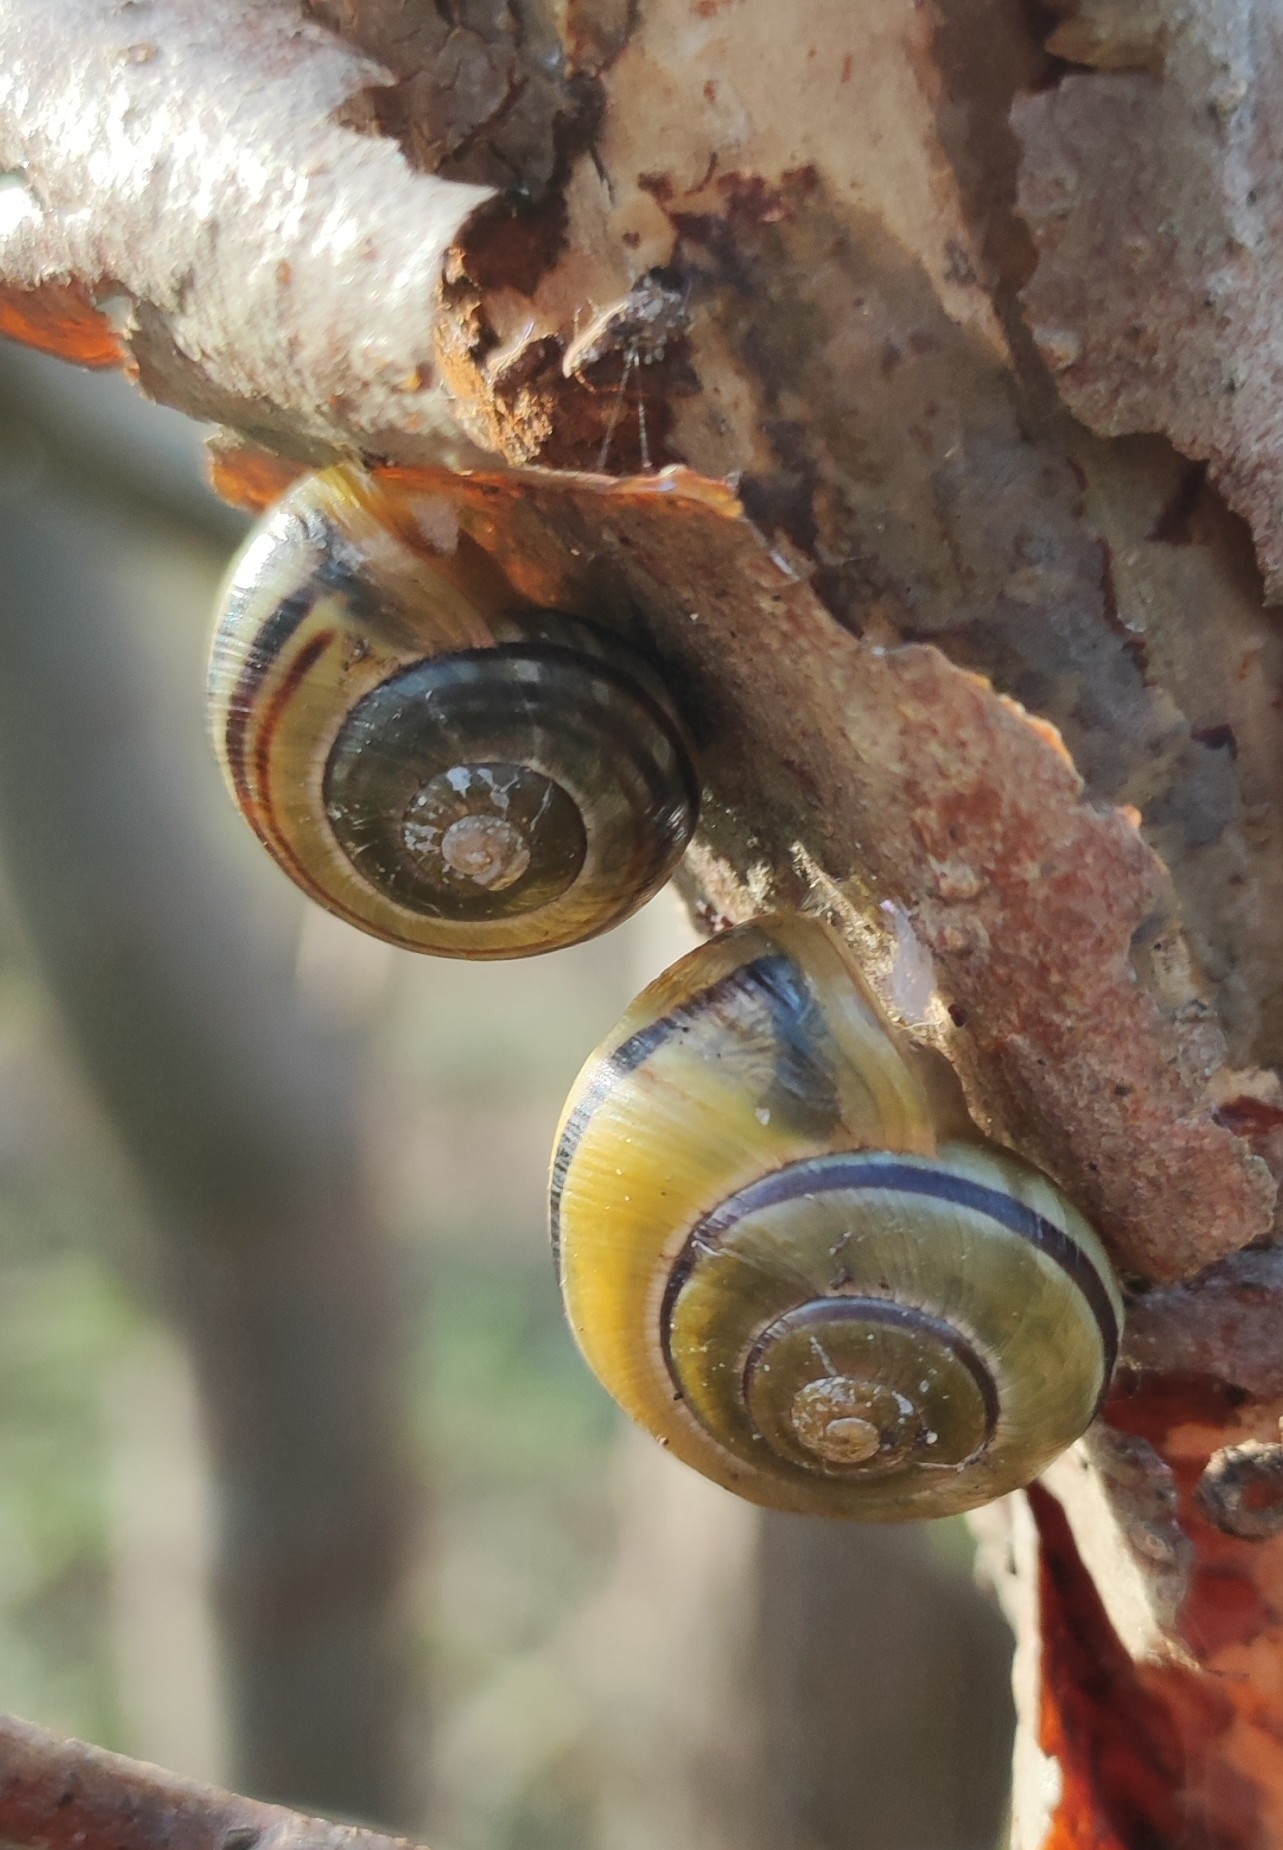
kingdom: Animalia
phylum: Mollusca
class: Gastropoda
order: Stylommatophora
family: Helicidae
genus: Cepaea
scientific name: Cepaea nemoralis
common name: Grovesnail
